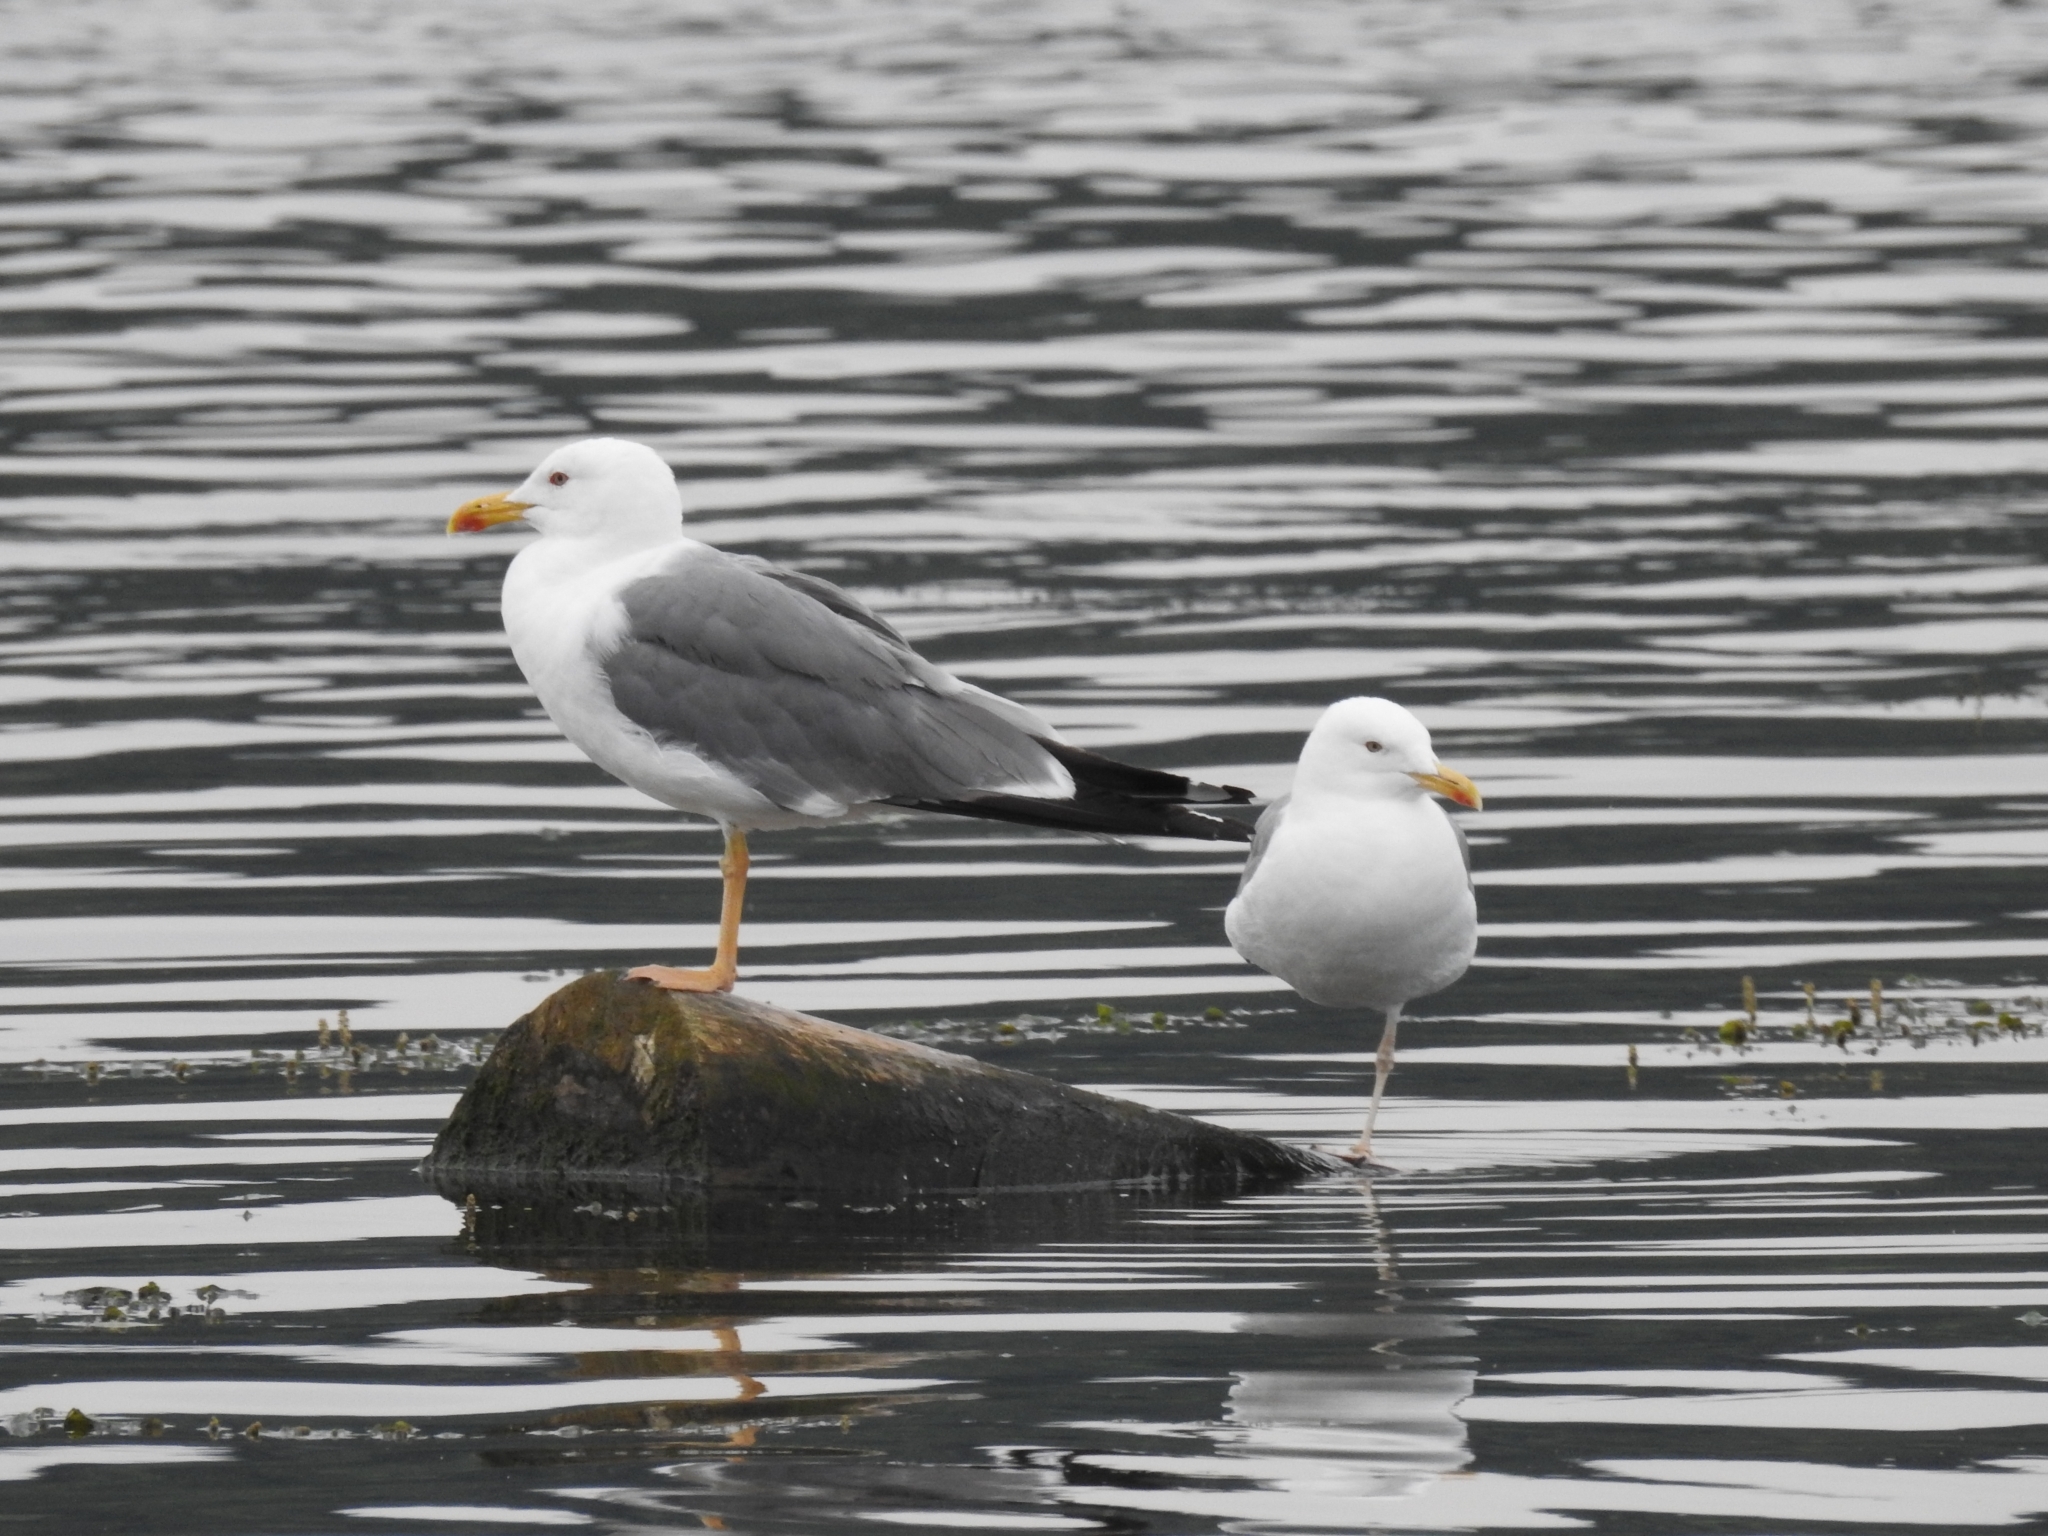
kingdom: Animalia
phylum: Chordata
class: Aves
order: Charadriiformes
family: Laridae
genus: Larus
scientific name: Larus fuscus
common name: Lesser black-backed gull
